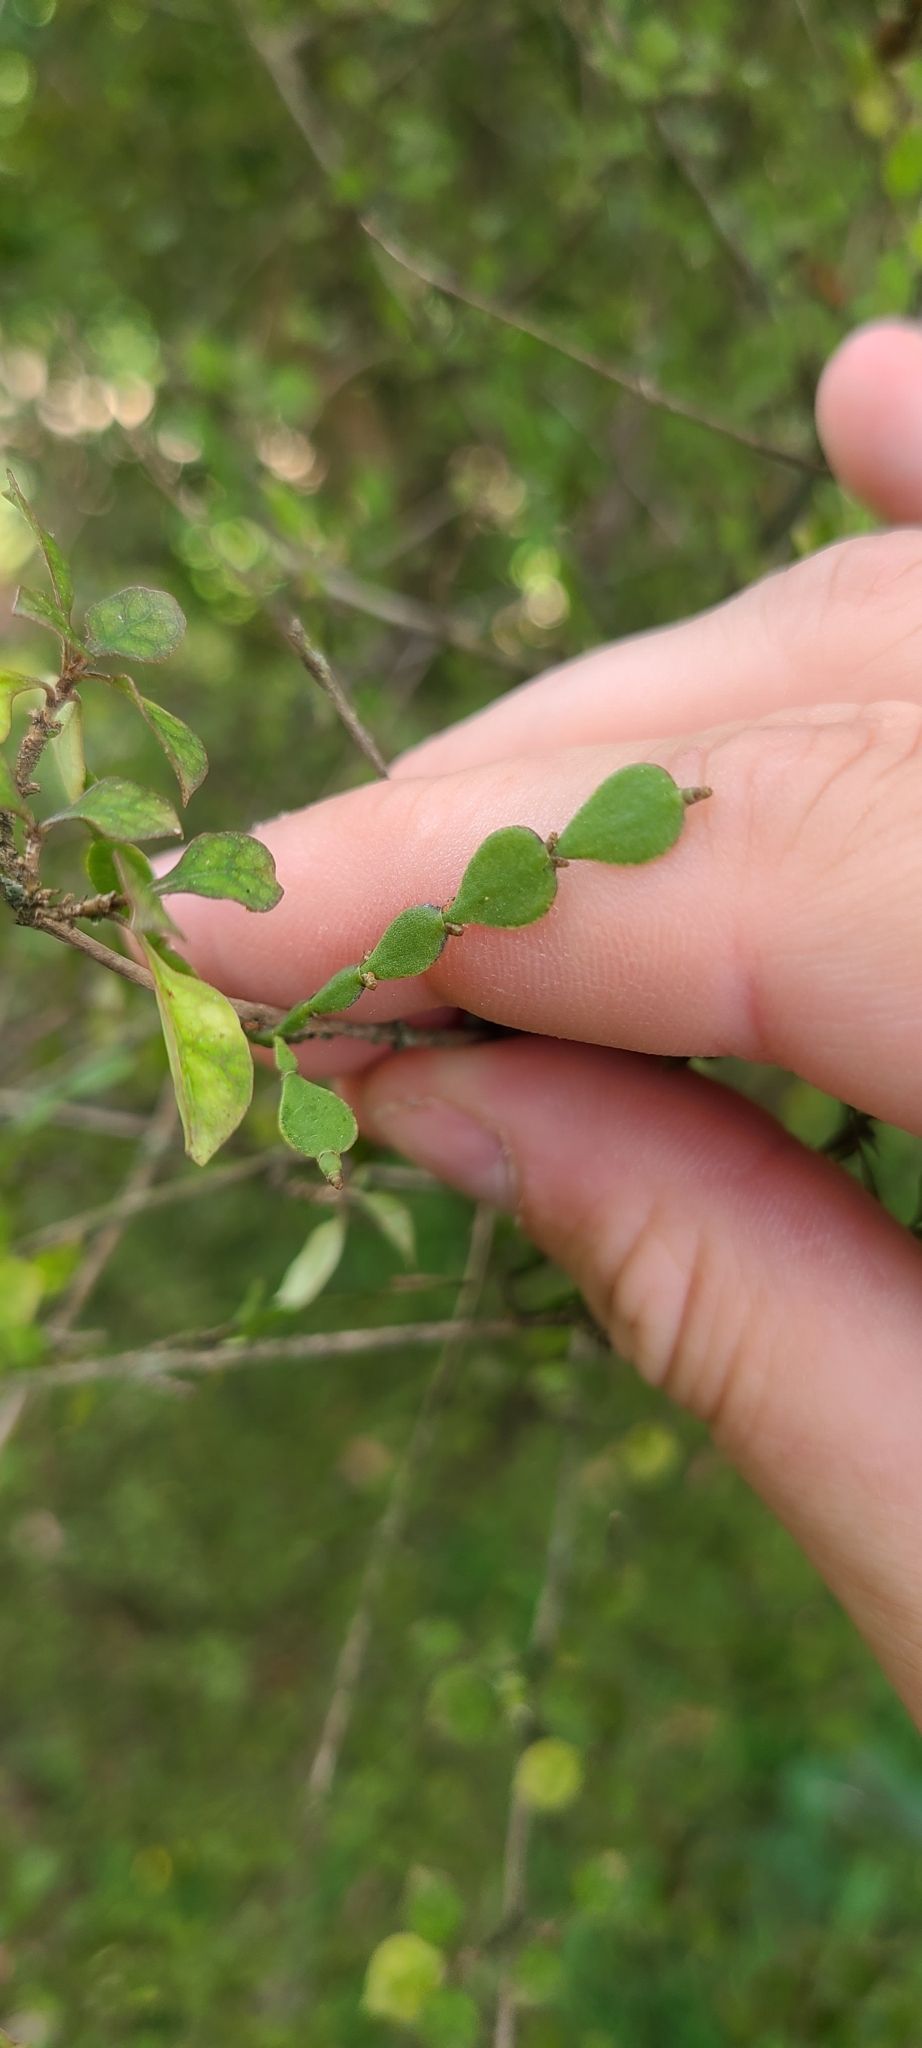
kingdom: Plantae
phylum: Tracheophyta
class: Magnoliopsida
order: Santalales
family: Viscaceae
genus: Korthalsella
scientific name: Korthalsella lindsayi
